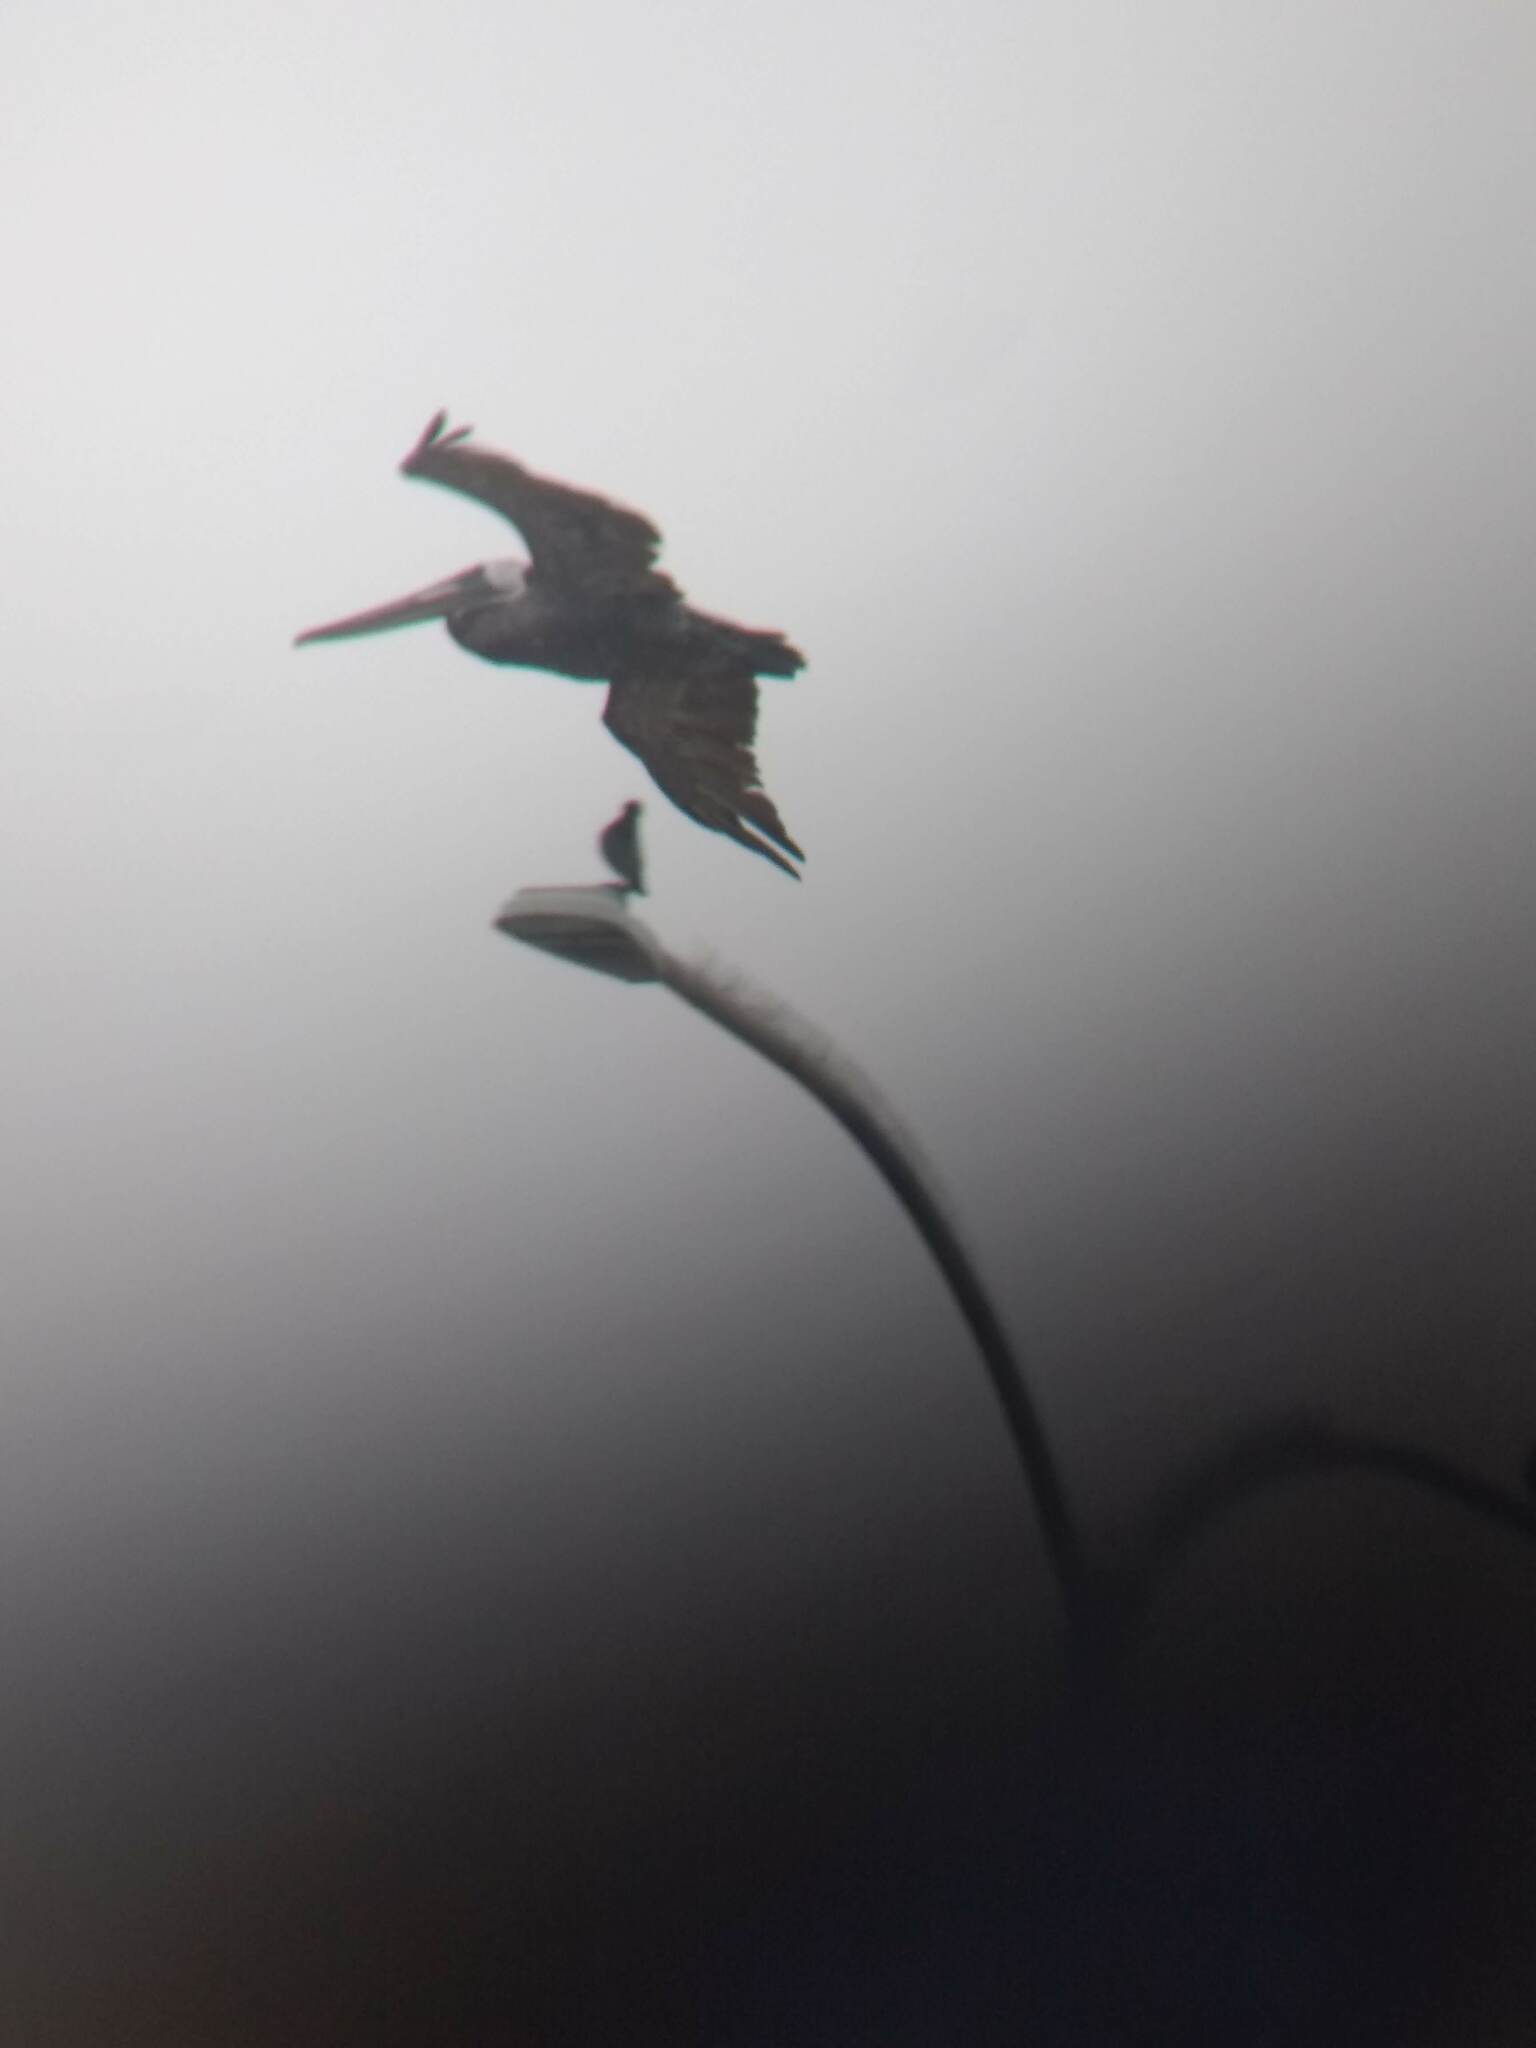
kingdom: Animalia
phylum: Chordata
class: Aves
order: Pelecaniformes
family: Pelecanidae
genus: Pelecanus
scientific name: Pelecanus occidentalis
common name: Brown pelican
